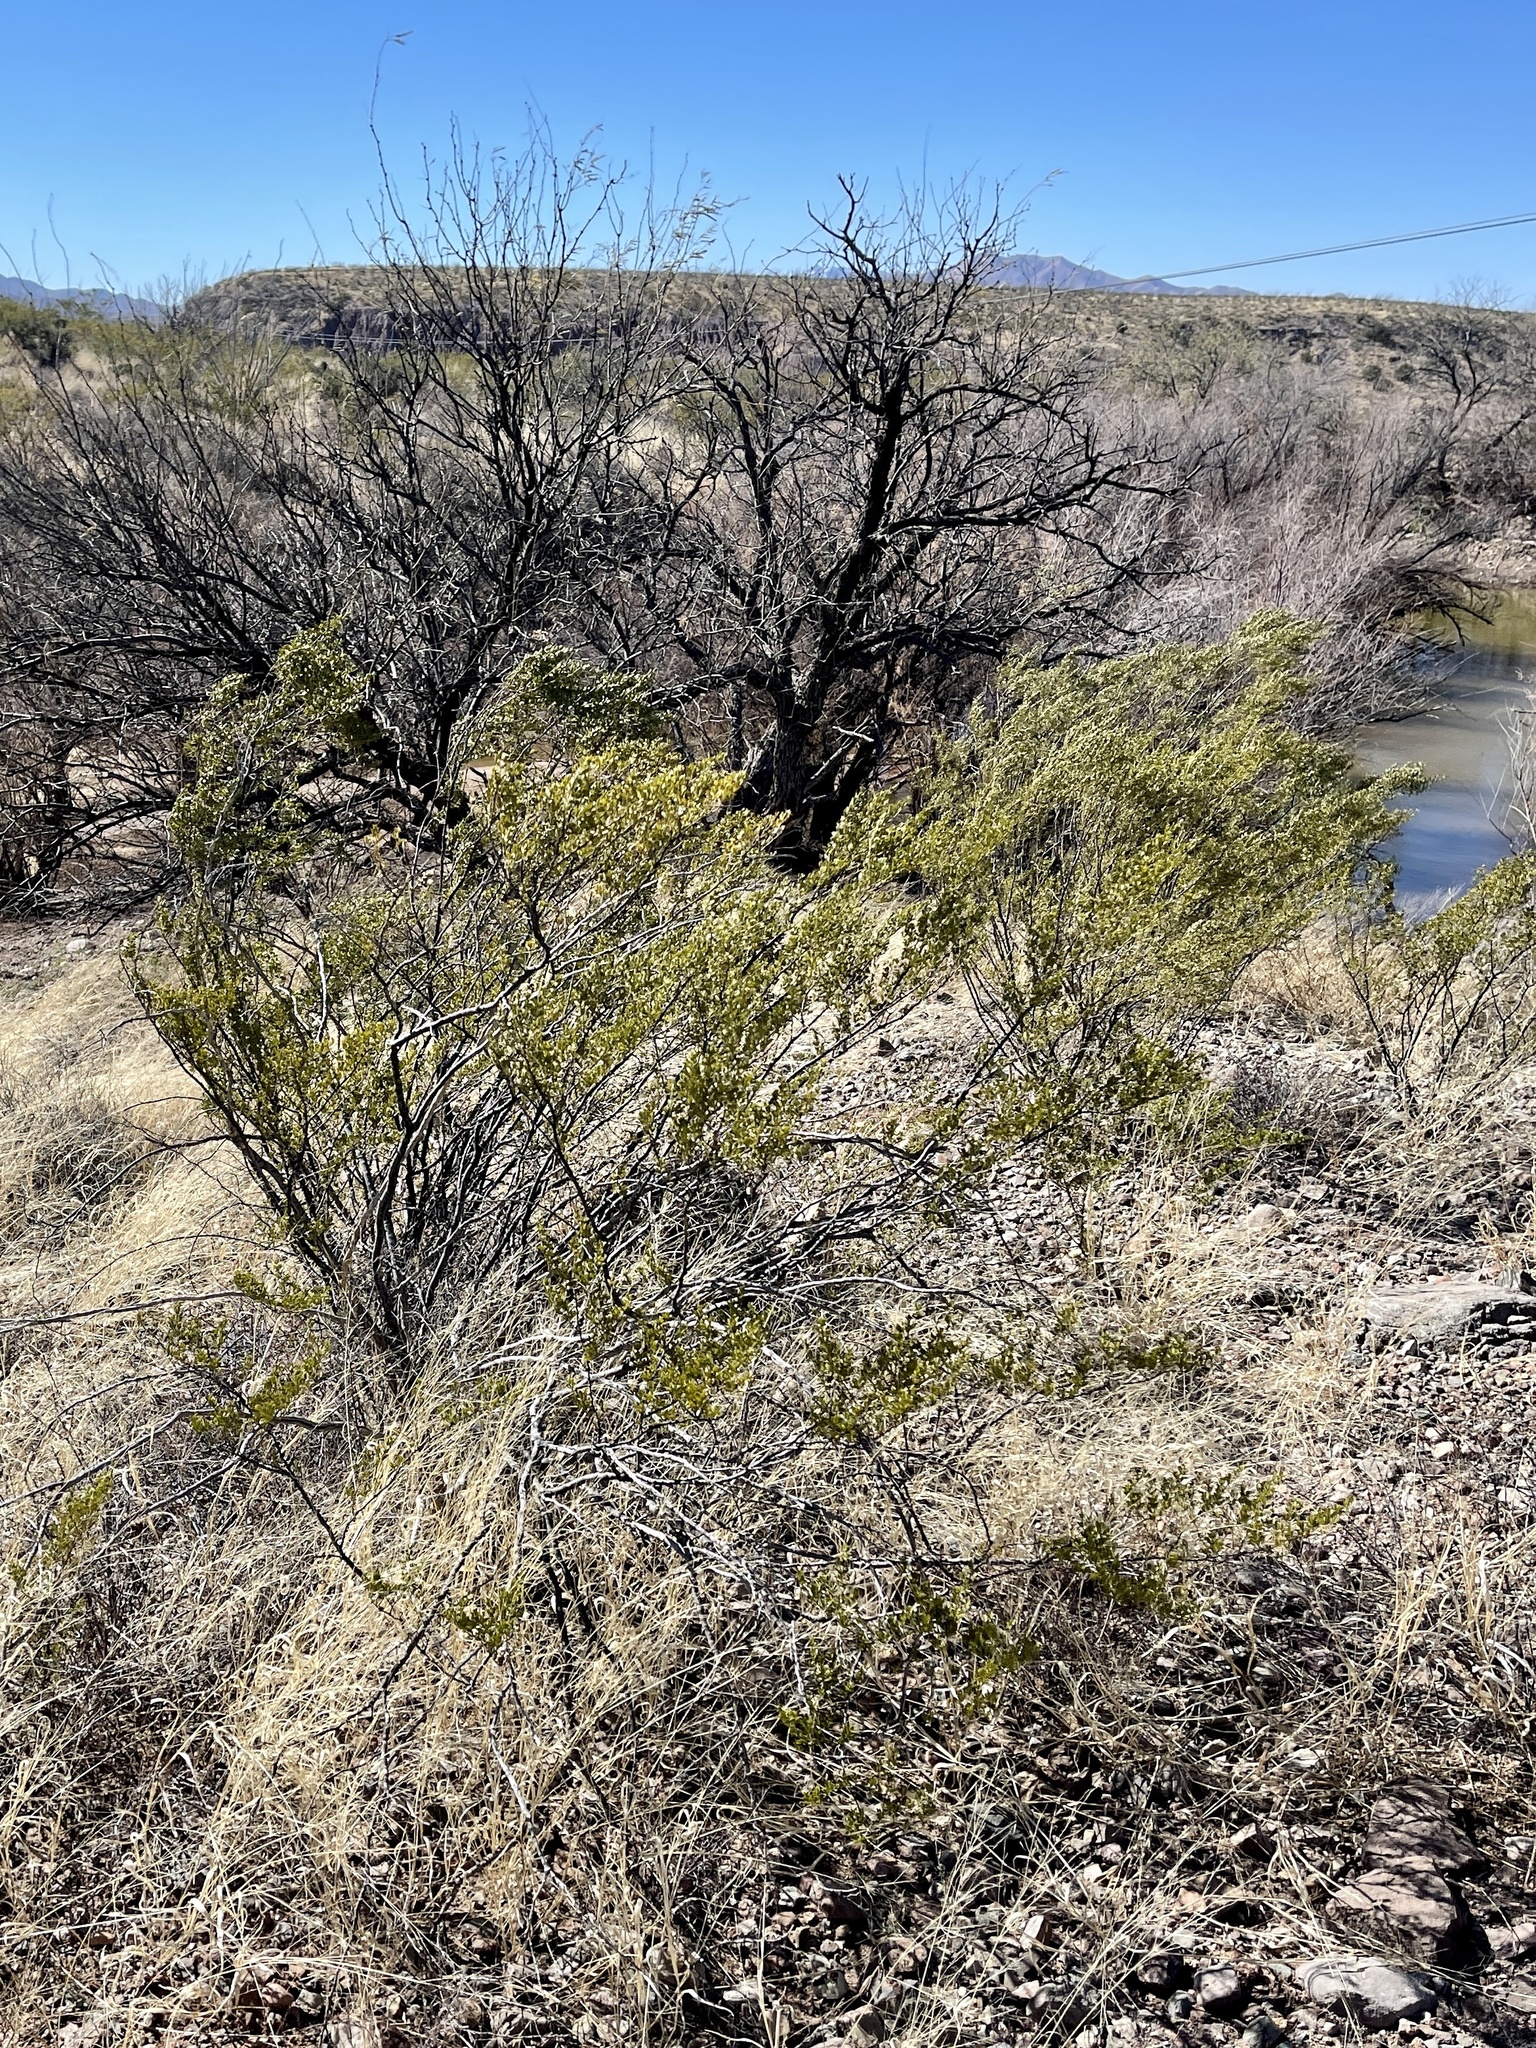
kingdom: Plantae
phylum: Tracheophyta
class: Magnoliopsida
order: Zygophyllales
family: Zygophyllaceae
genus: Larrea
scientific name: Larrea tridentata
